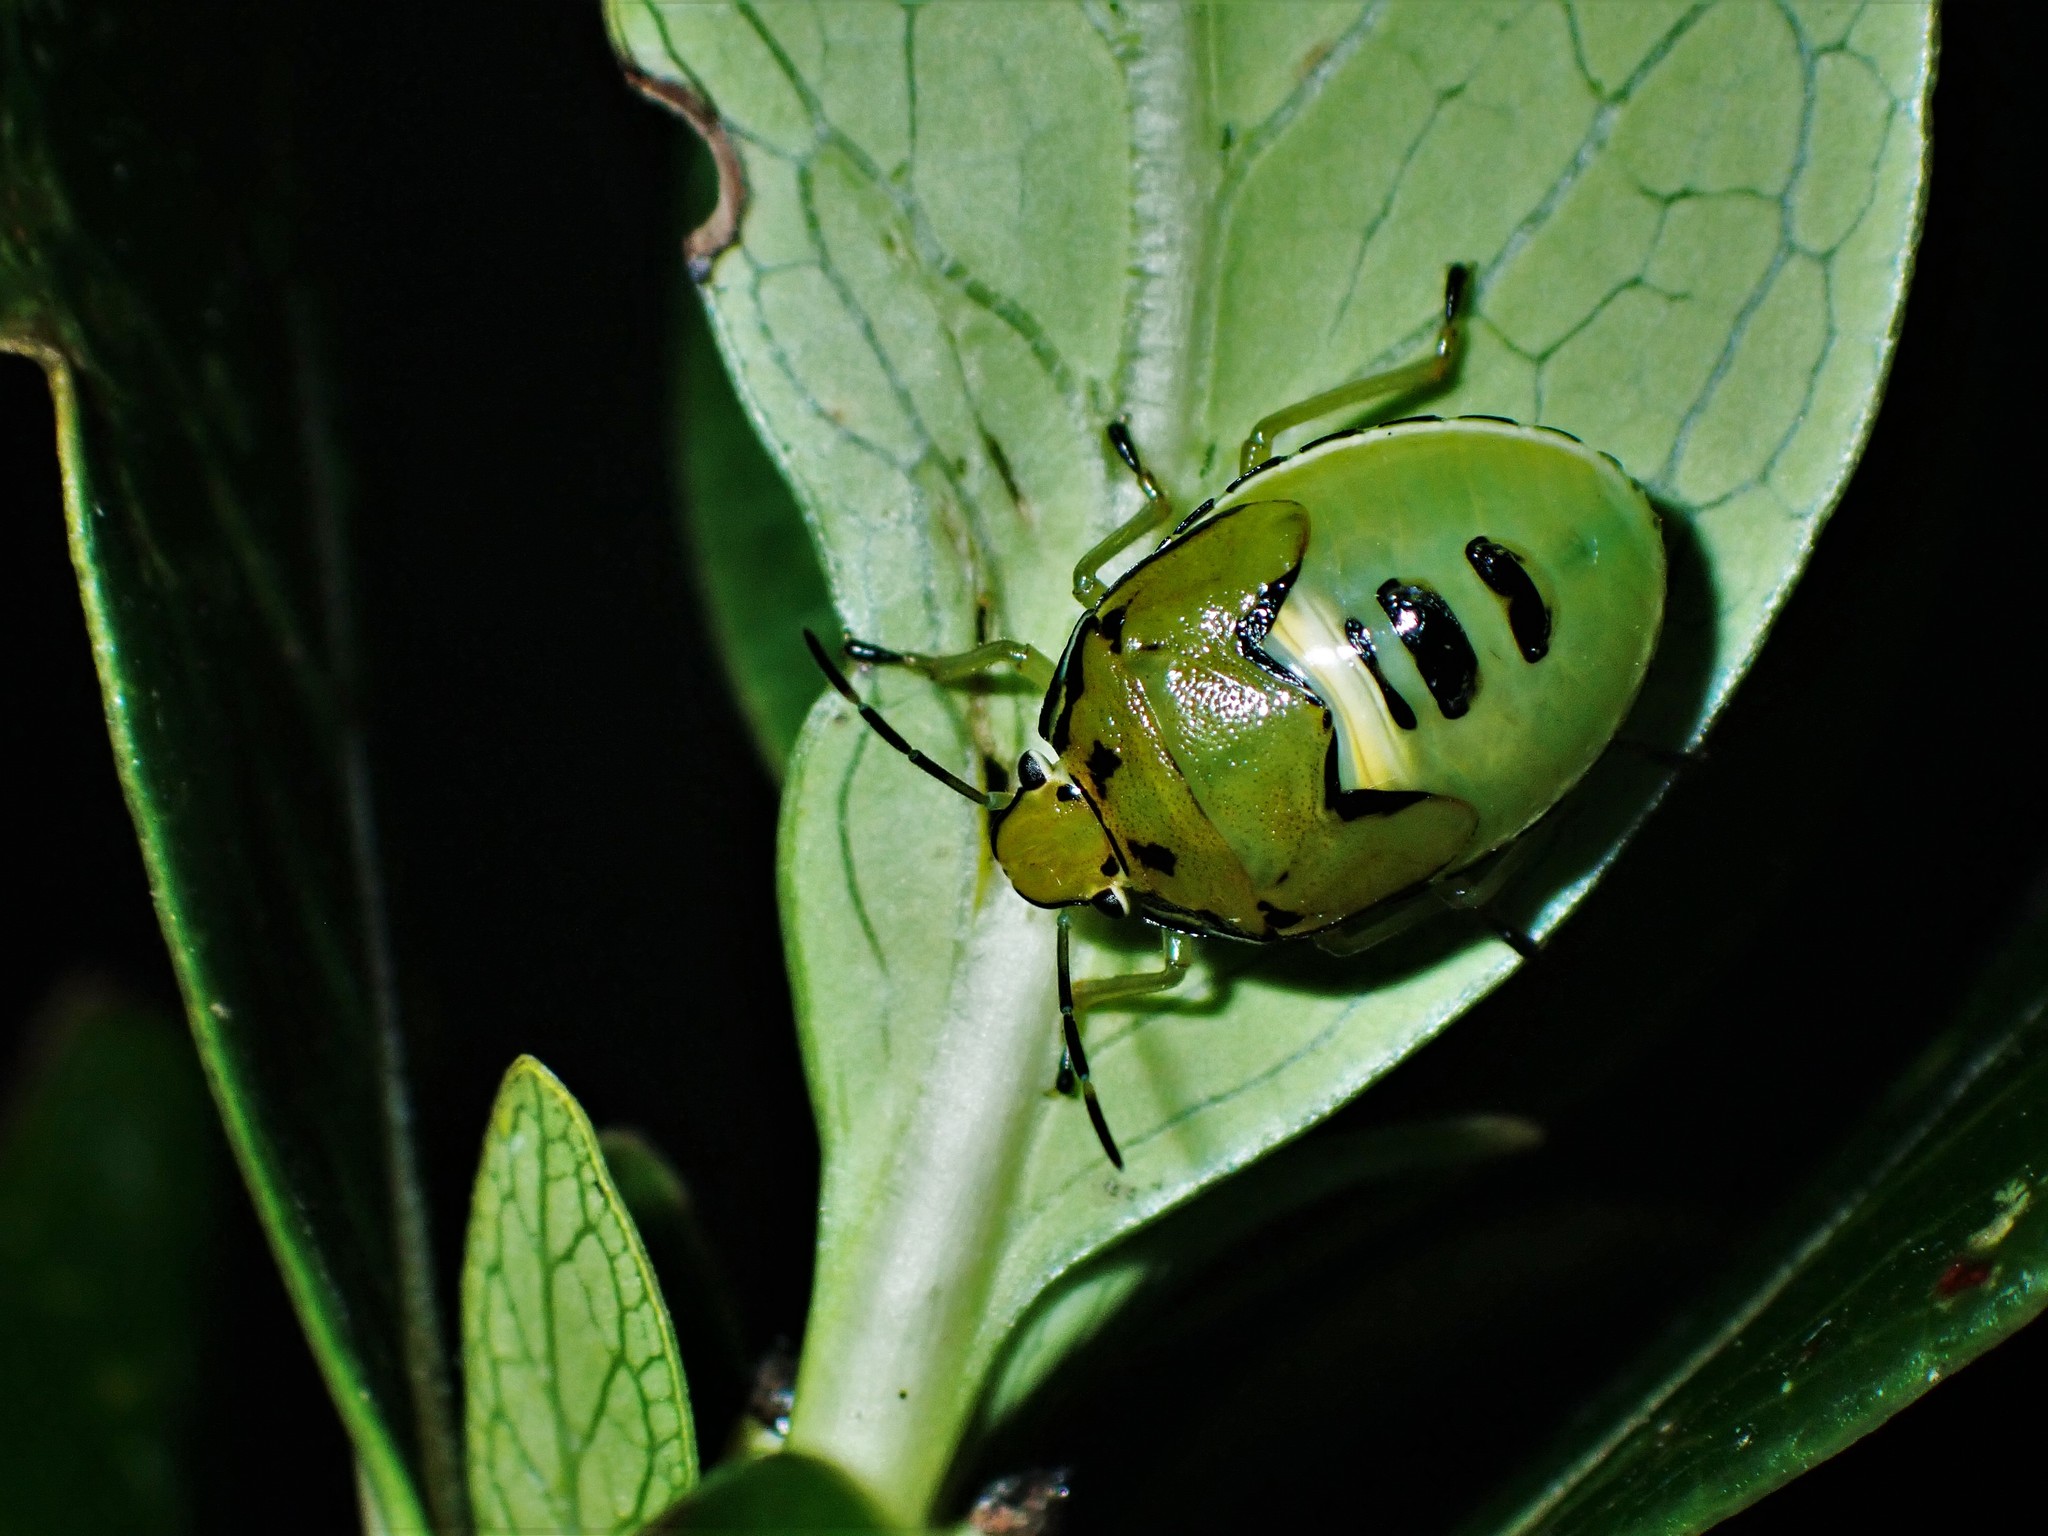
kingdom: Animalia
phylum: Arthropoda
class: Insecta
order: Hemiptera
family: Pentatomidae
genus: Glaucias
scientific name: Glaucias amyota
